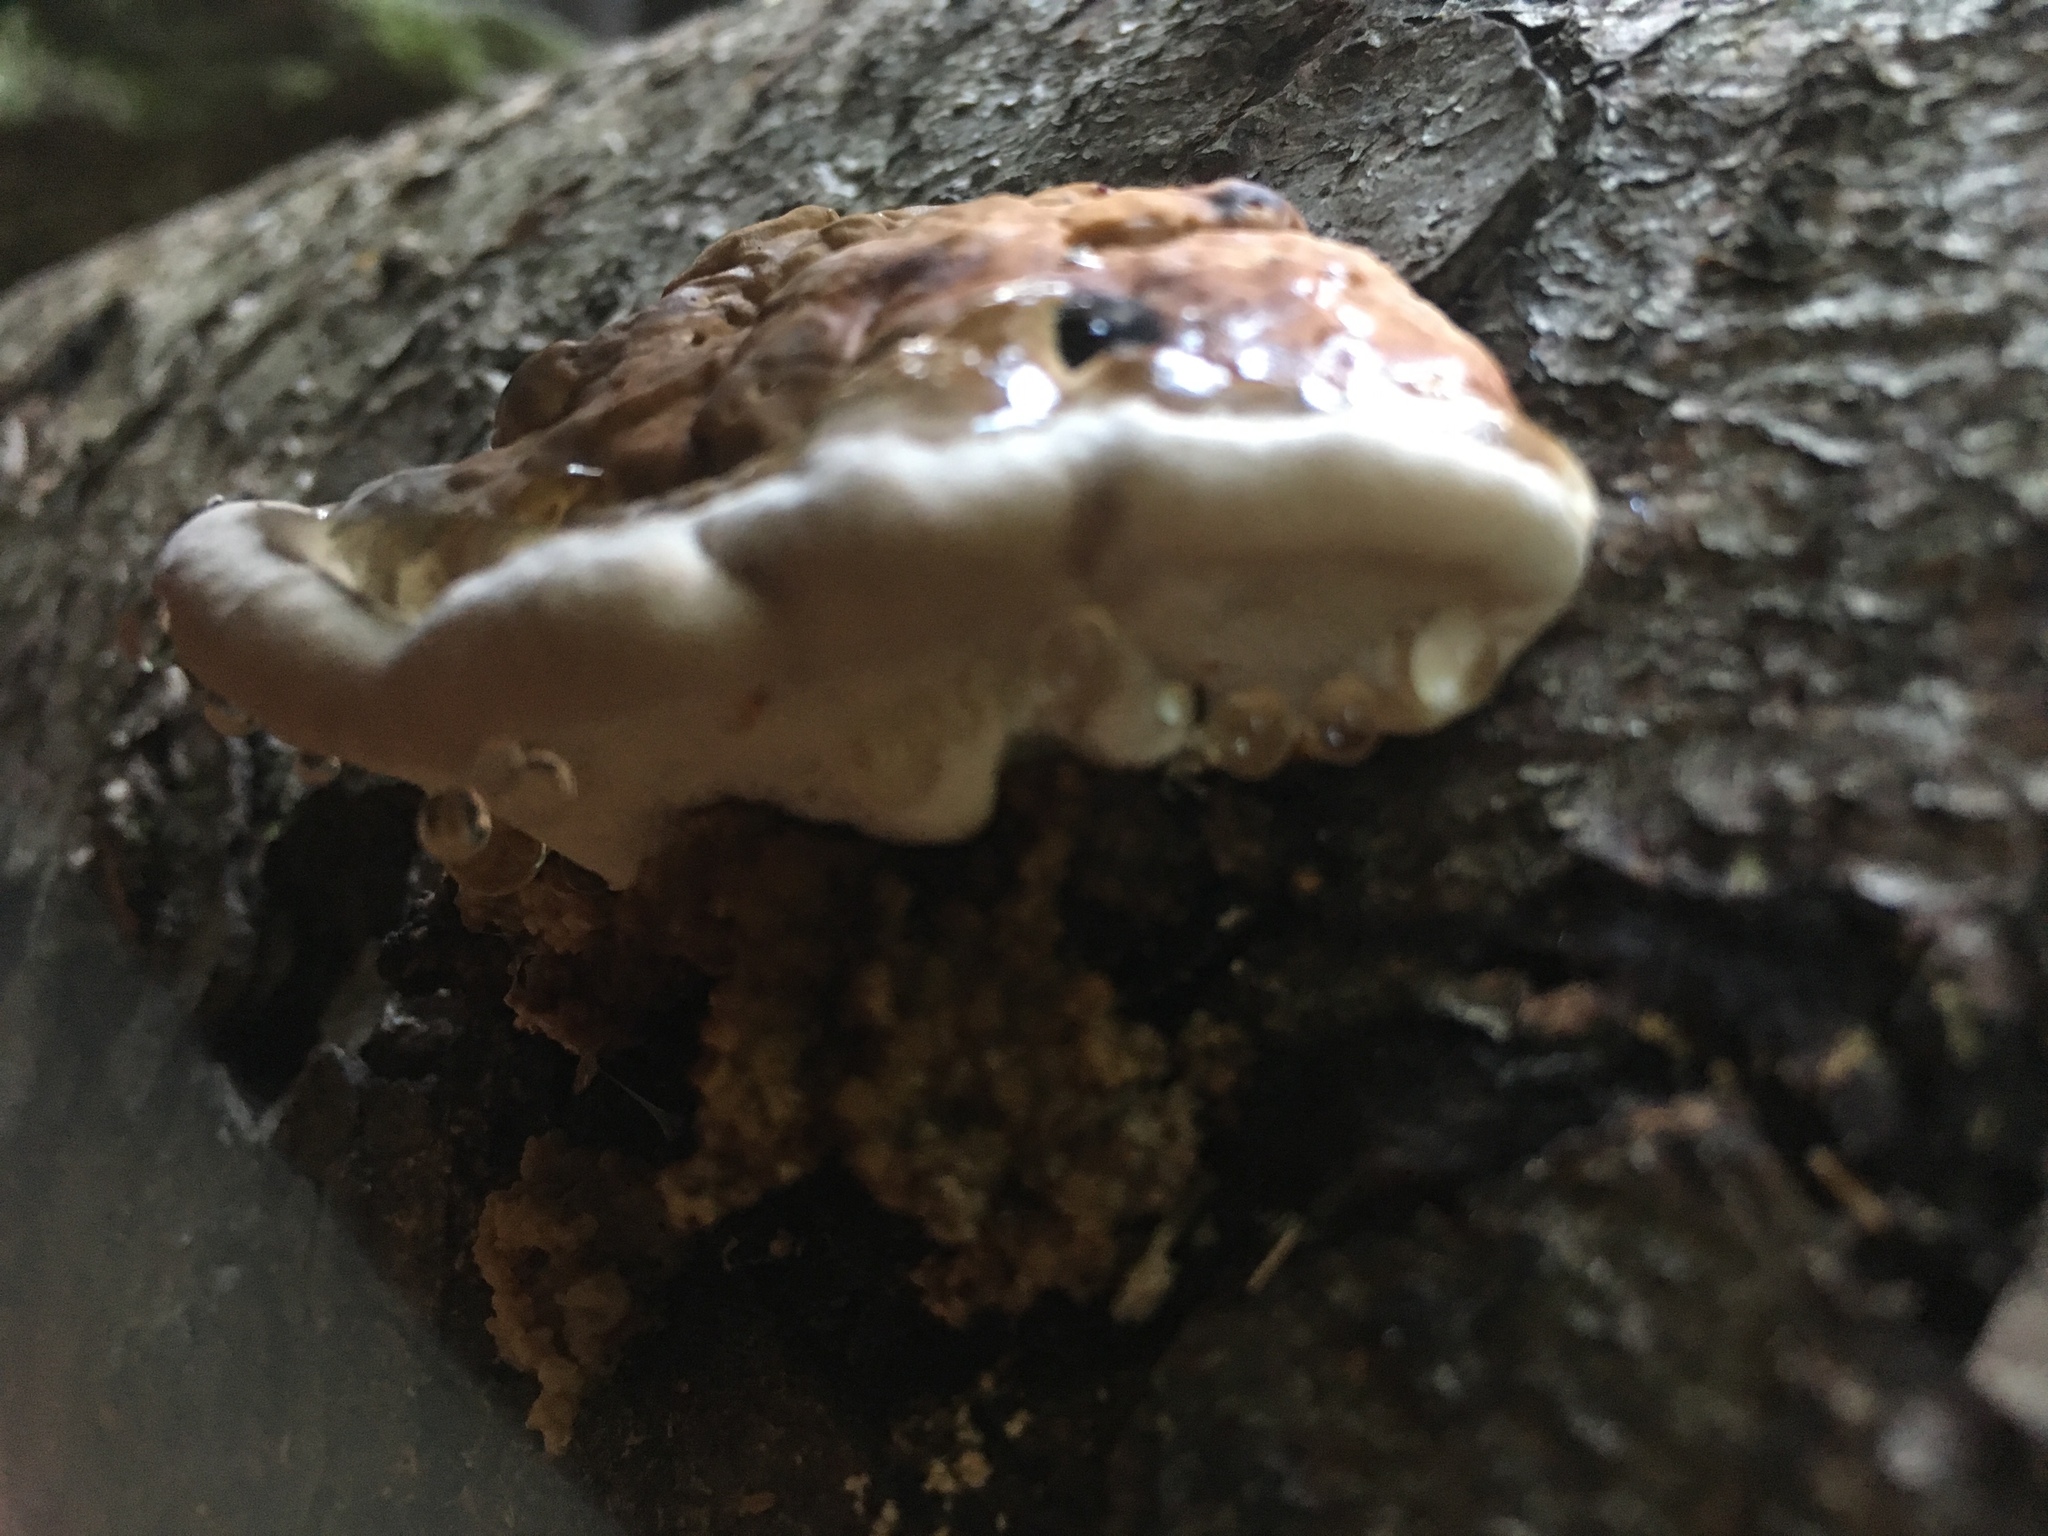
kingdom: Fungi
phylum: Basidiomycota
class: Agaricomycetes
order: Polyporales
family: Fomitopsidaceae
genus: Fomitopsis
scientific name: Fomitopsis pinicola
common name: Red-belted bracket
